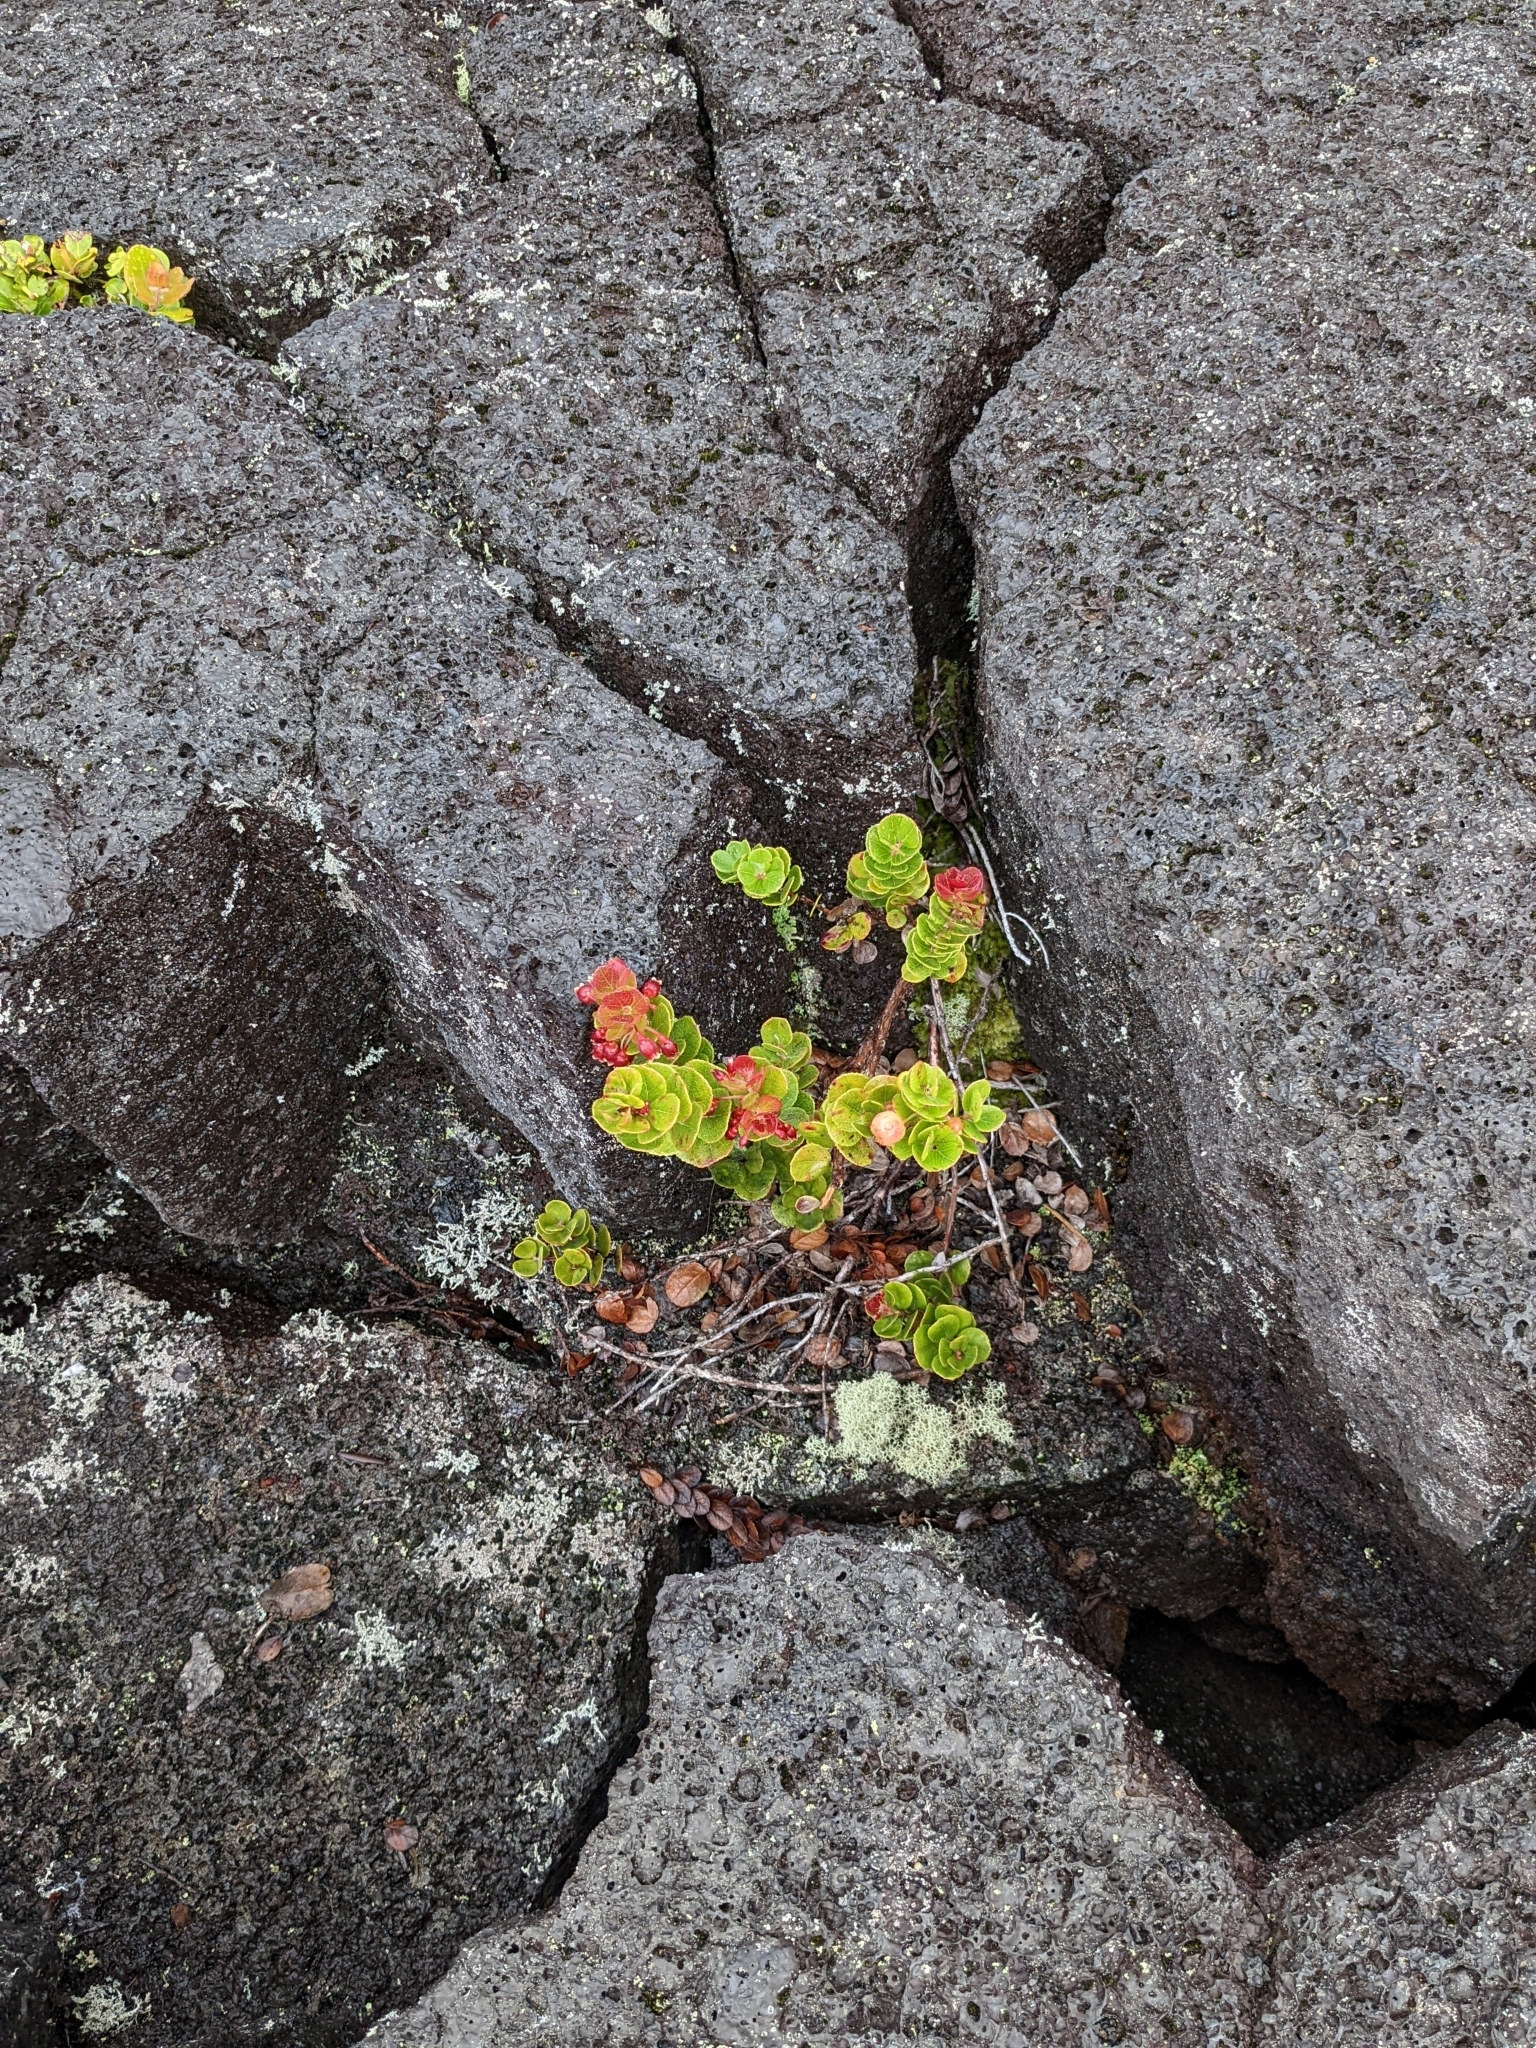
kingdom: Plantae
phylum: Tracheophyta
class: Magnoliopsida
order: Ericales
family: Ericaceae
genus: Vaccinium
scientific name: Vaccinium reticulatum
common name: Ohelo
